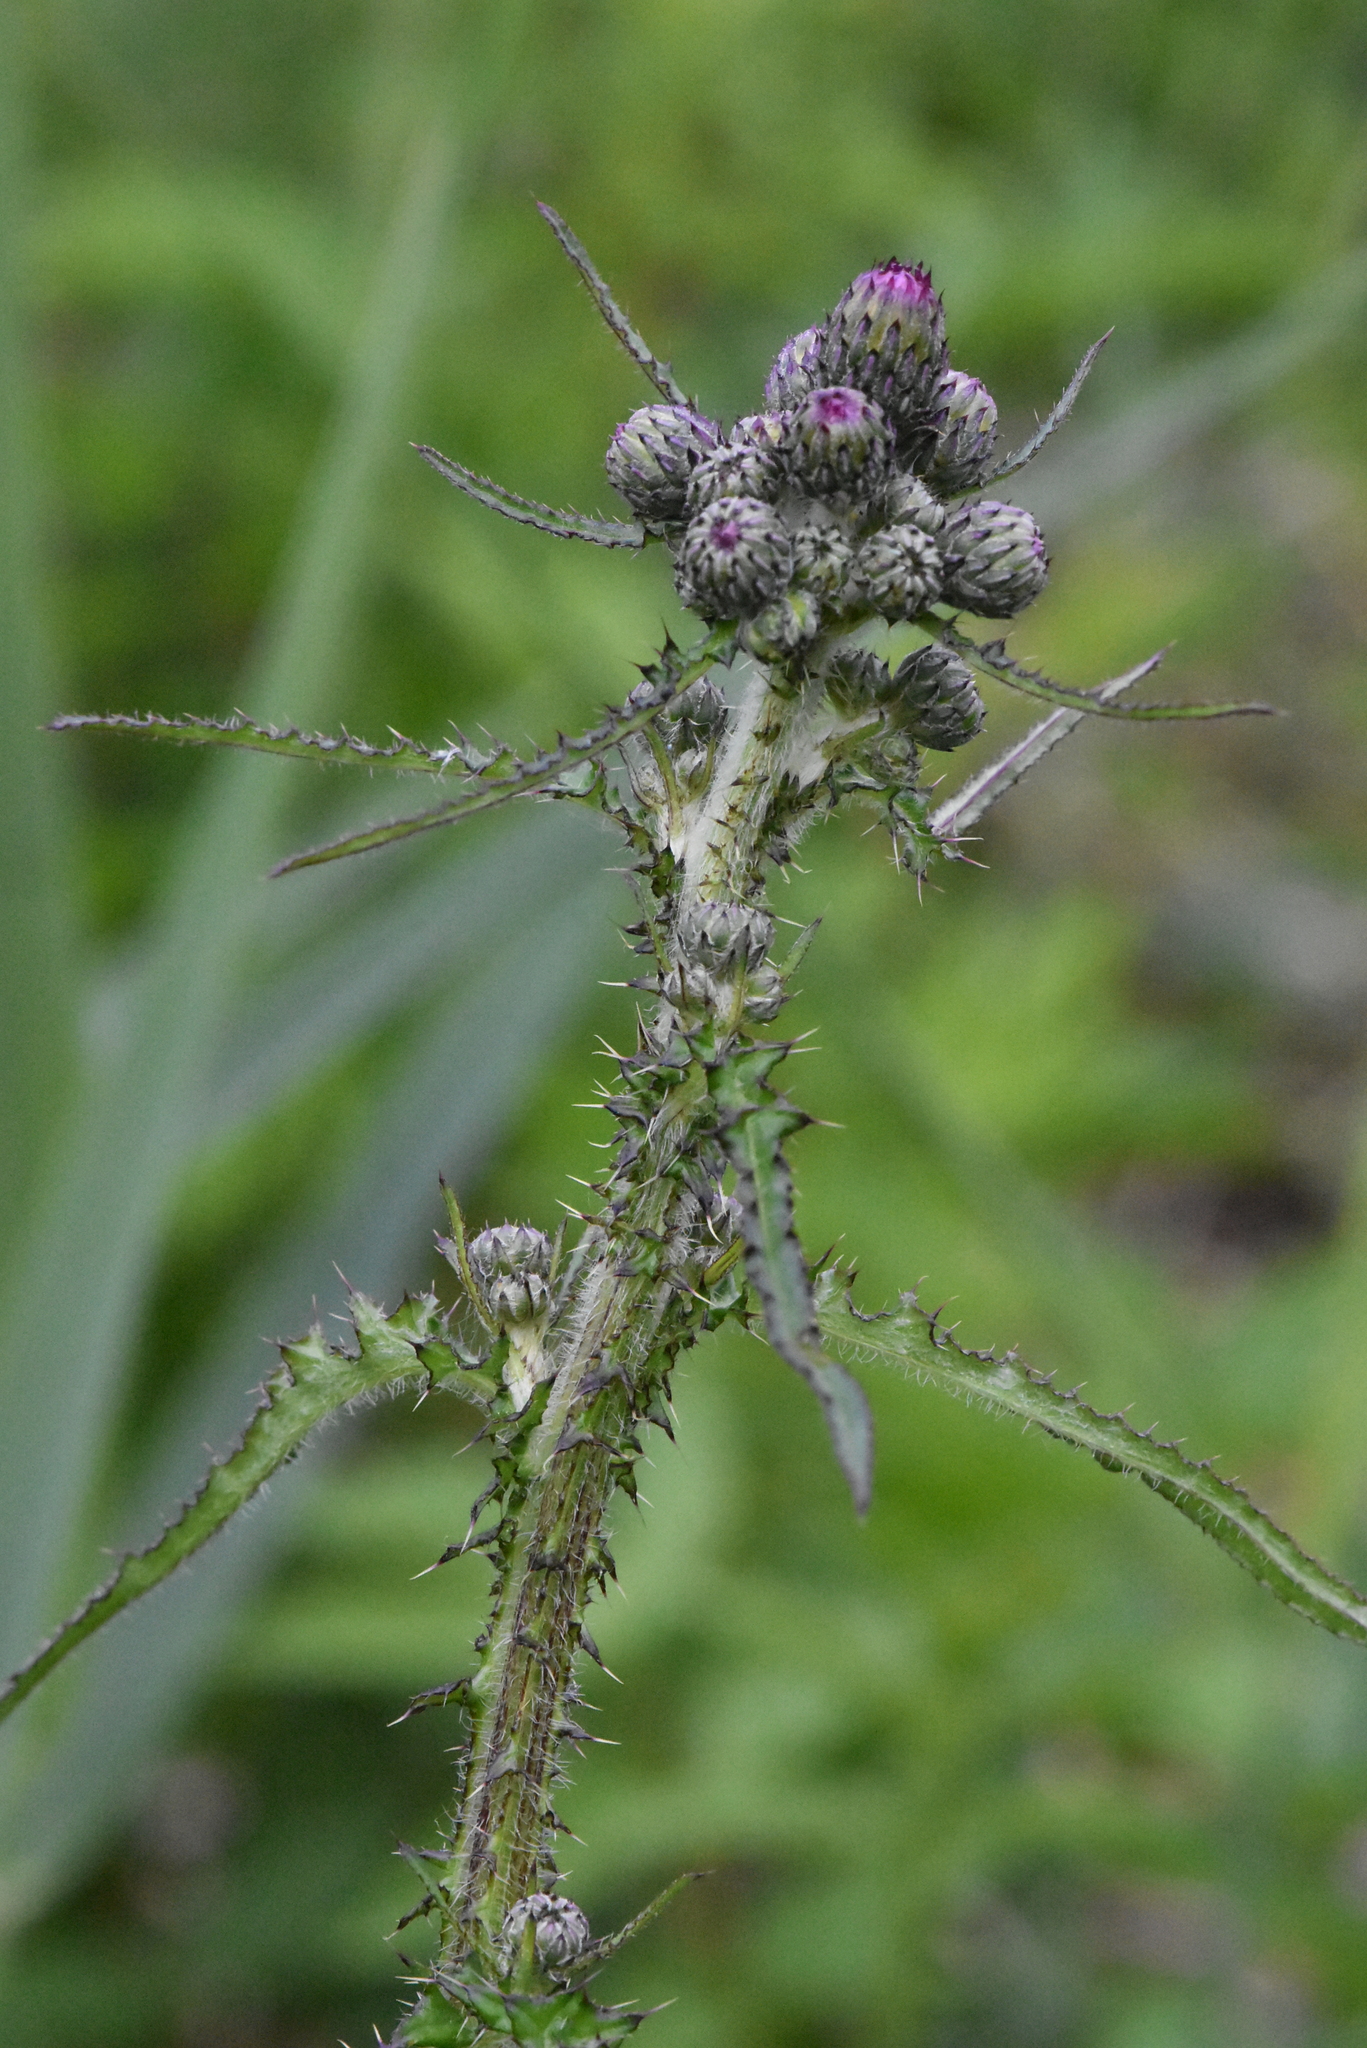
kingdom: Plantae
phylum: Tracheophyta
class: Magnoliopsida
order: Asterales
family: Asteraceae
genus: Cirsium
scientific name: Cirsium palustre
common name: Marsh thistle
